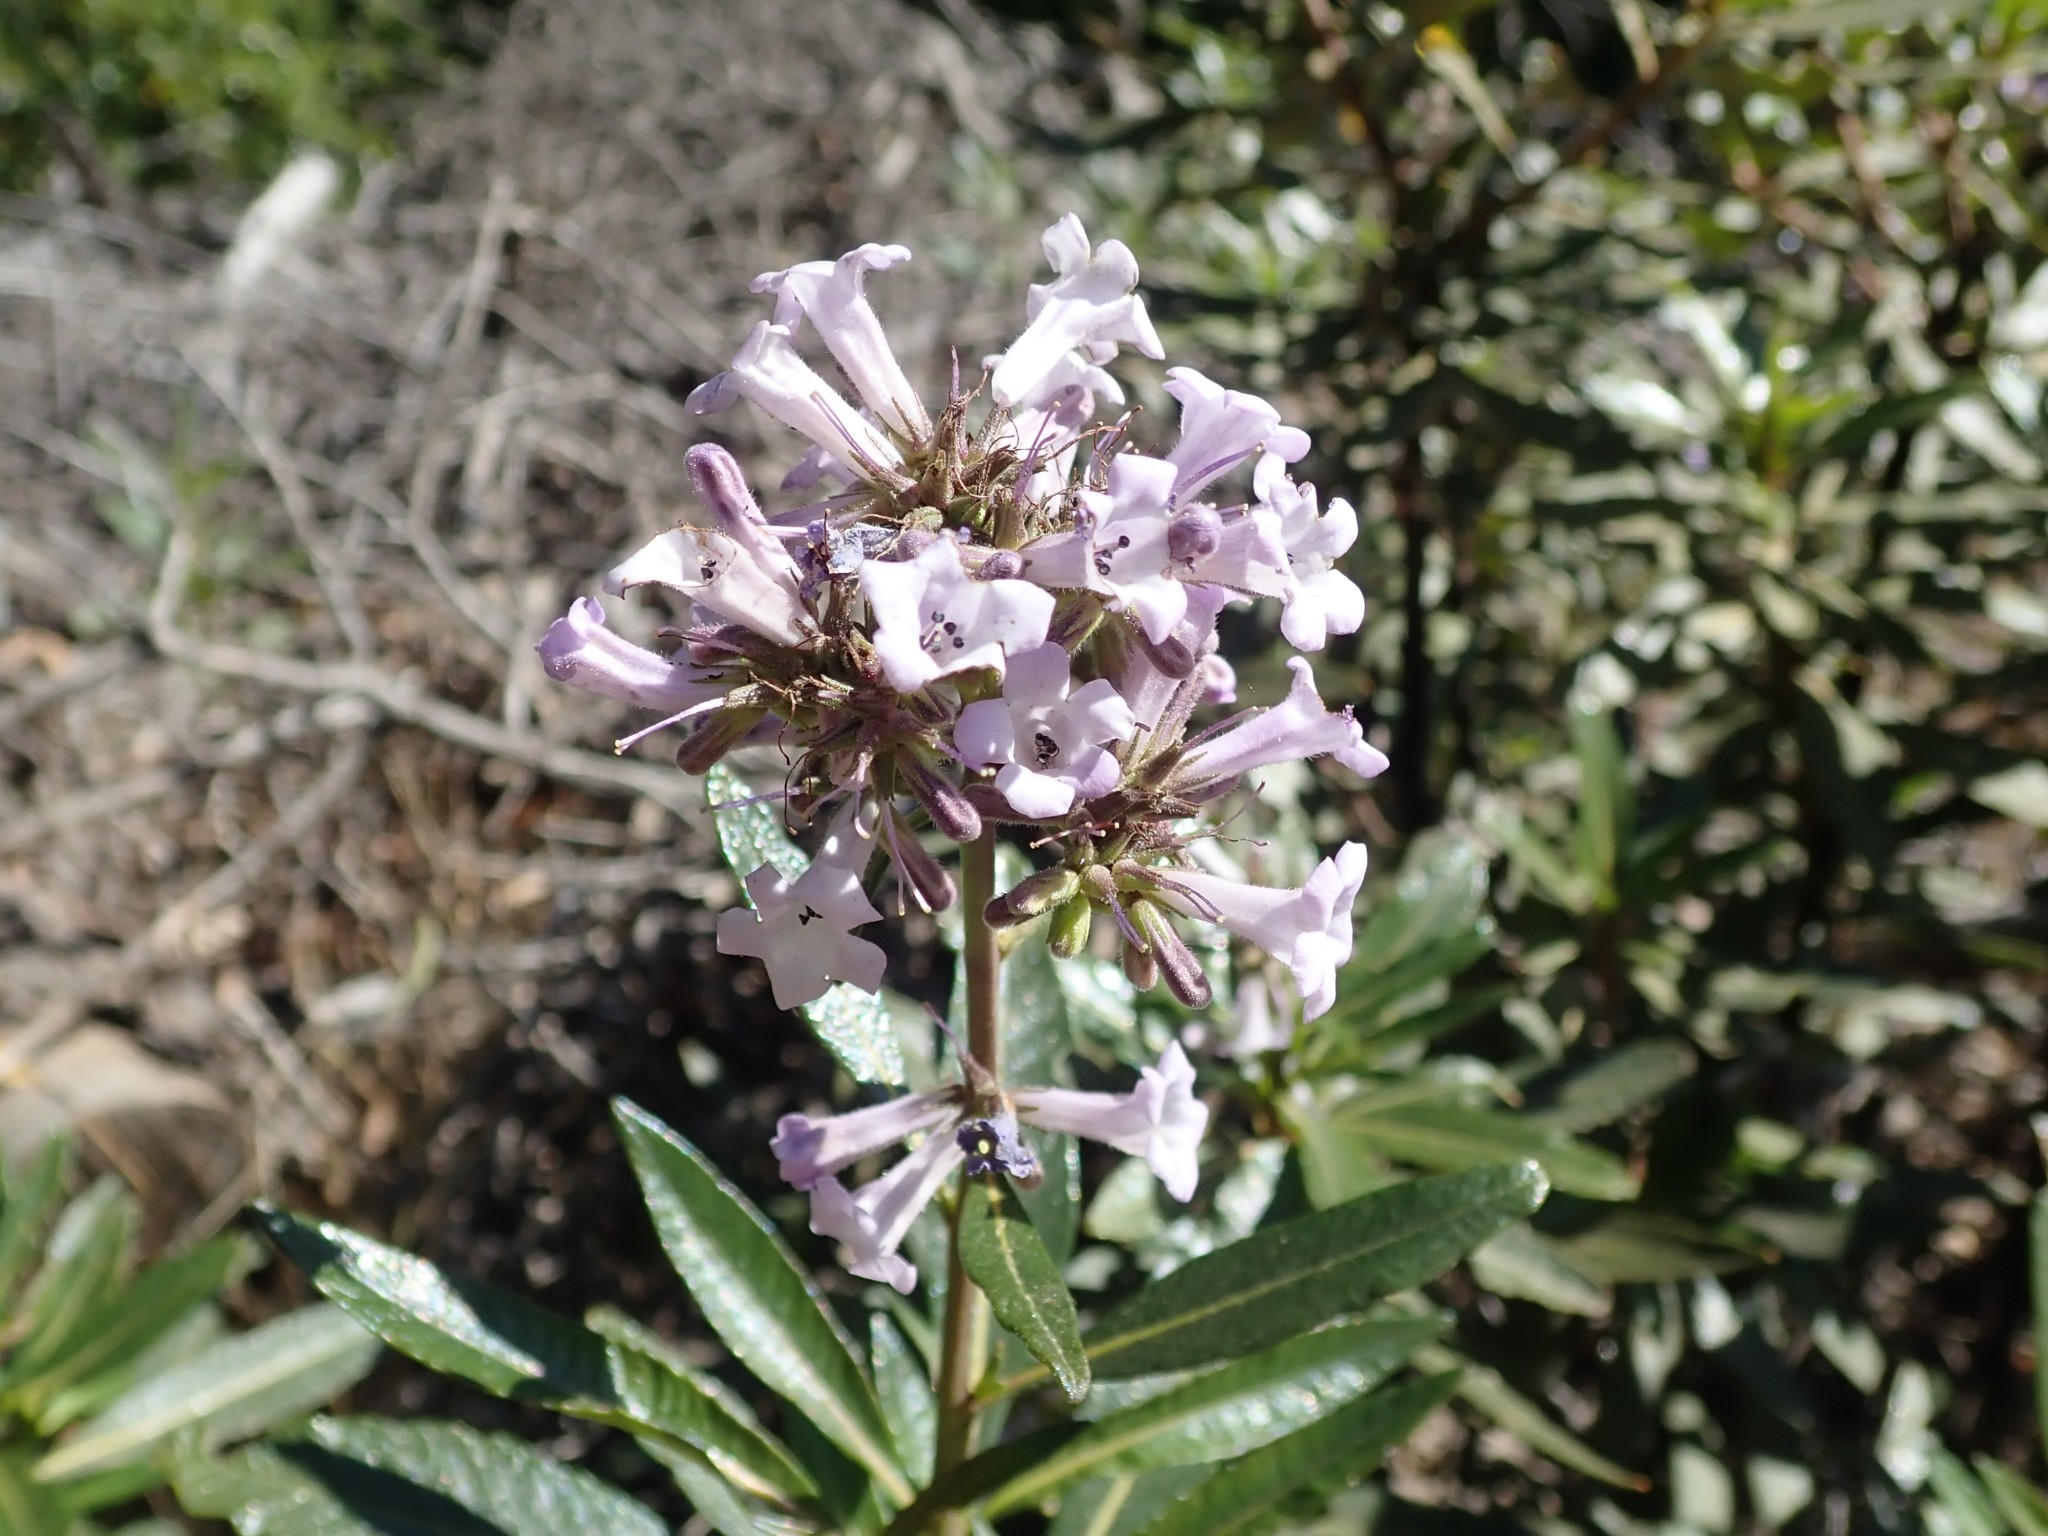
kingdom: Plantae
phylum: Tracheophyta
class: Magnoliopsida
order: Boraginales
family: Namaceae
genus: Eriodictyon
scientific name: Eriodictyon californicum
